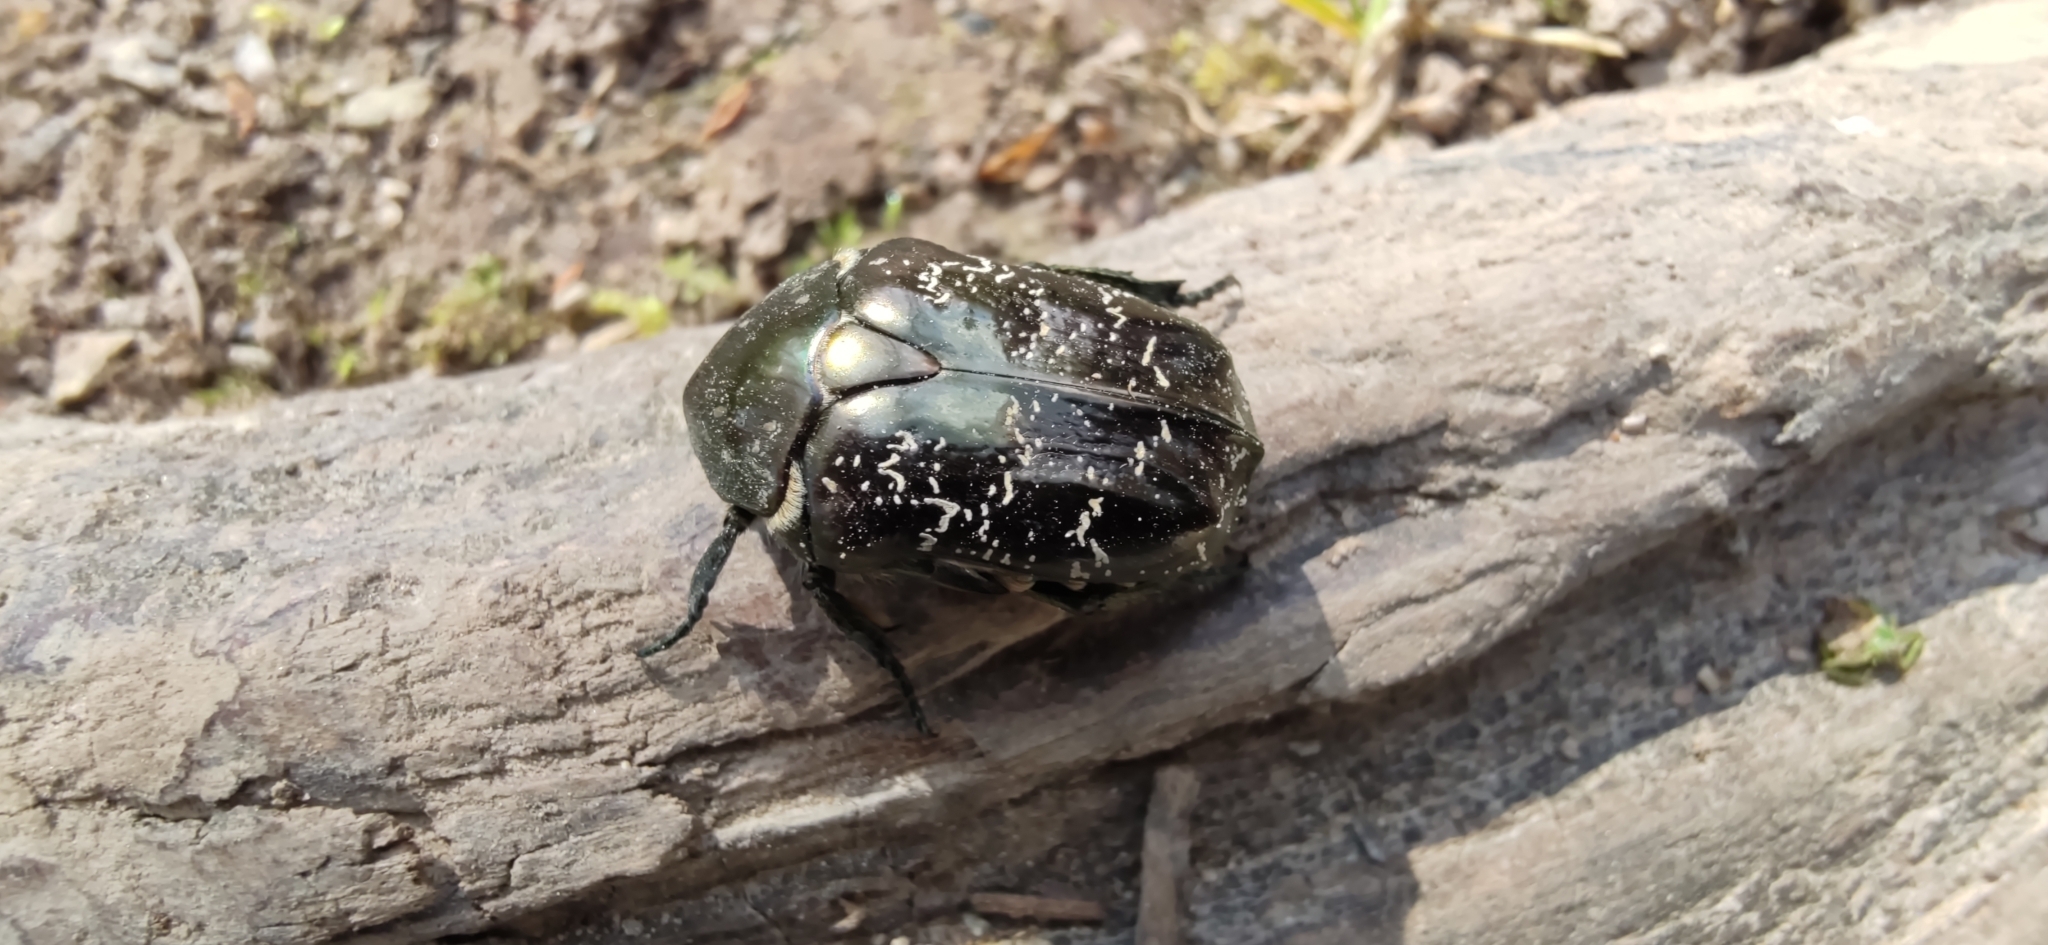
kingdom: Animalia
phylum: Arthropoda
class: Insecta
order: Coleoptera
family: Scarabaeidae
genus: Protaetia
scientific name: Protaetia marmorata
